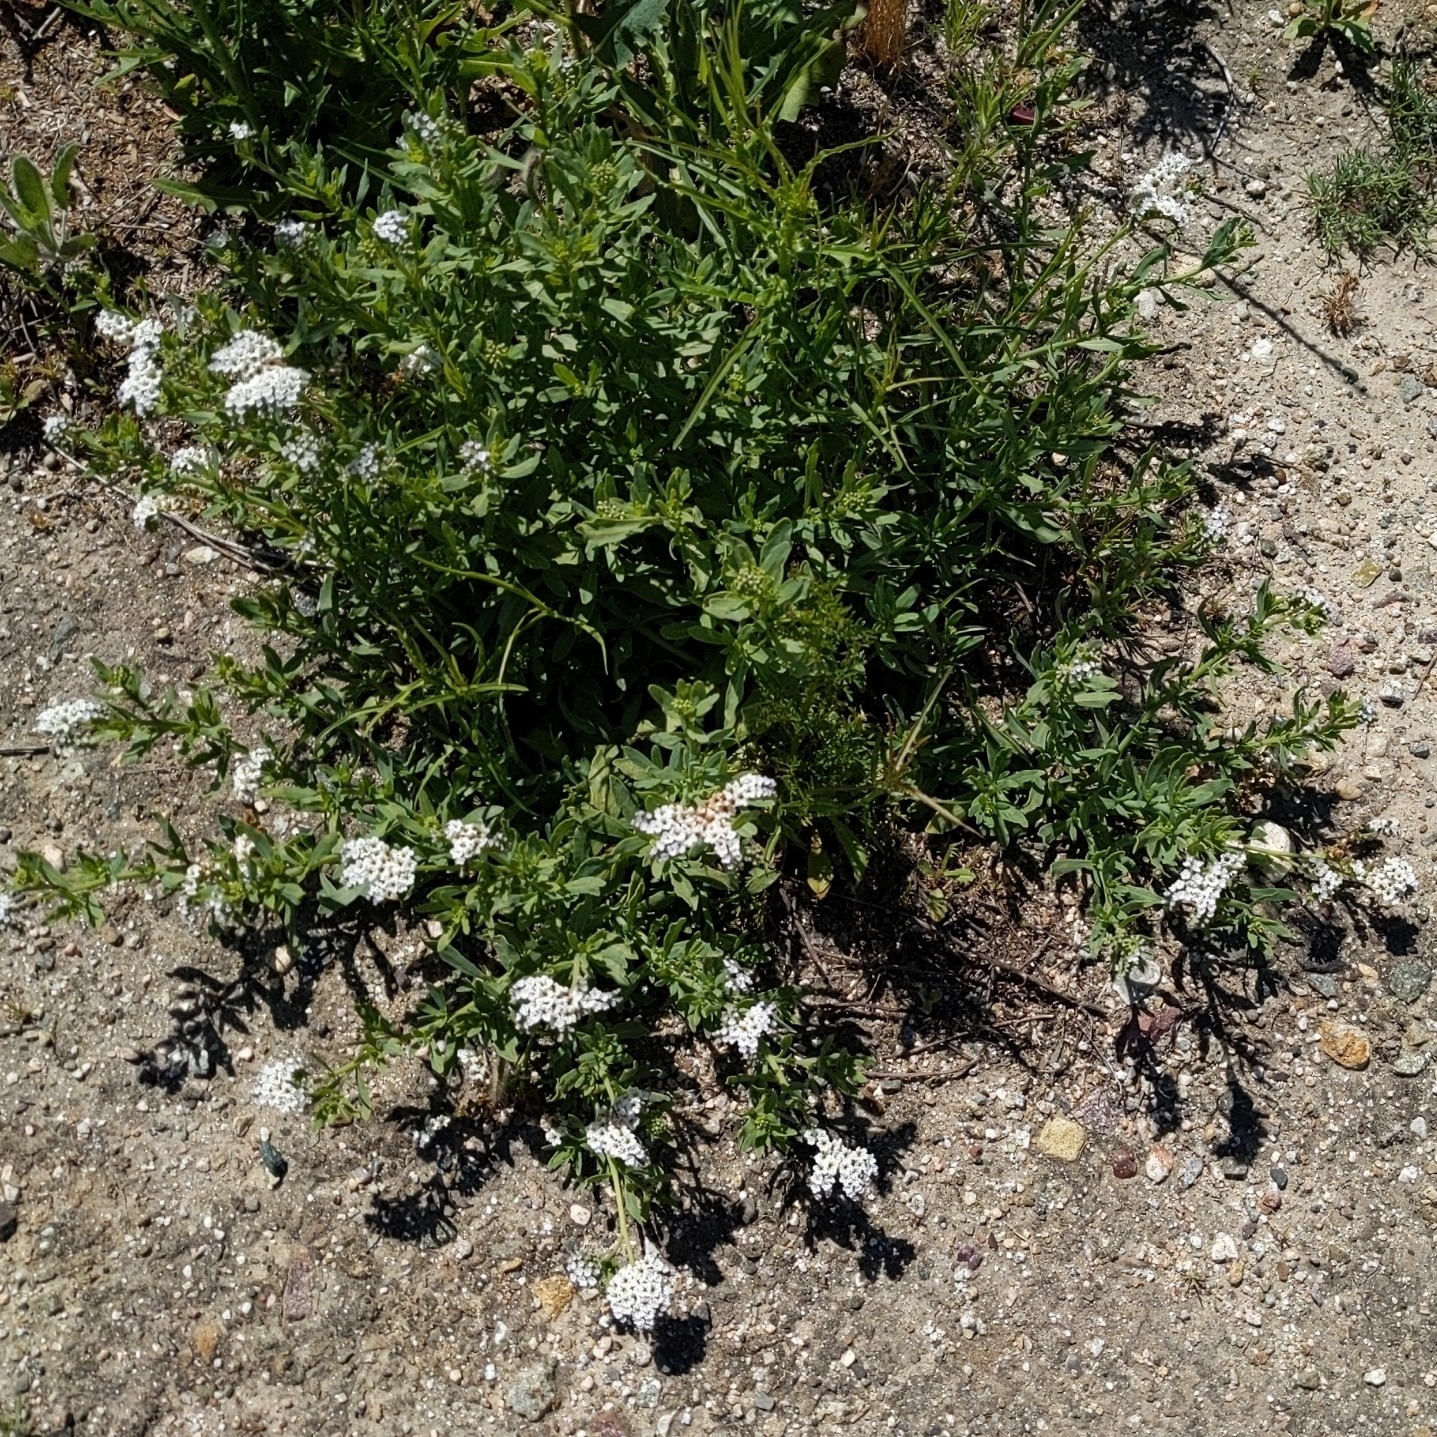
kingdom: Plantae
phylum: Tracheophyta
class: Magnoliopsida
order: Boraginales
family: Heliotropiaceae
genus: Heliotropium
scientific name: Heliotropium curassavicum
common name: Seaside heliotrope
